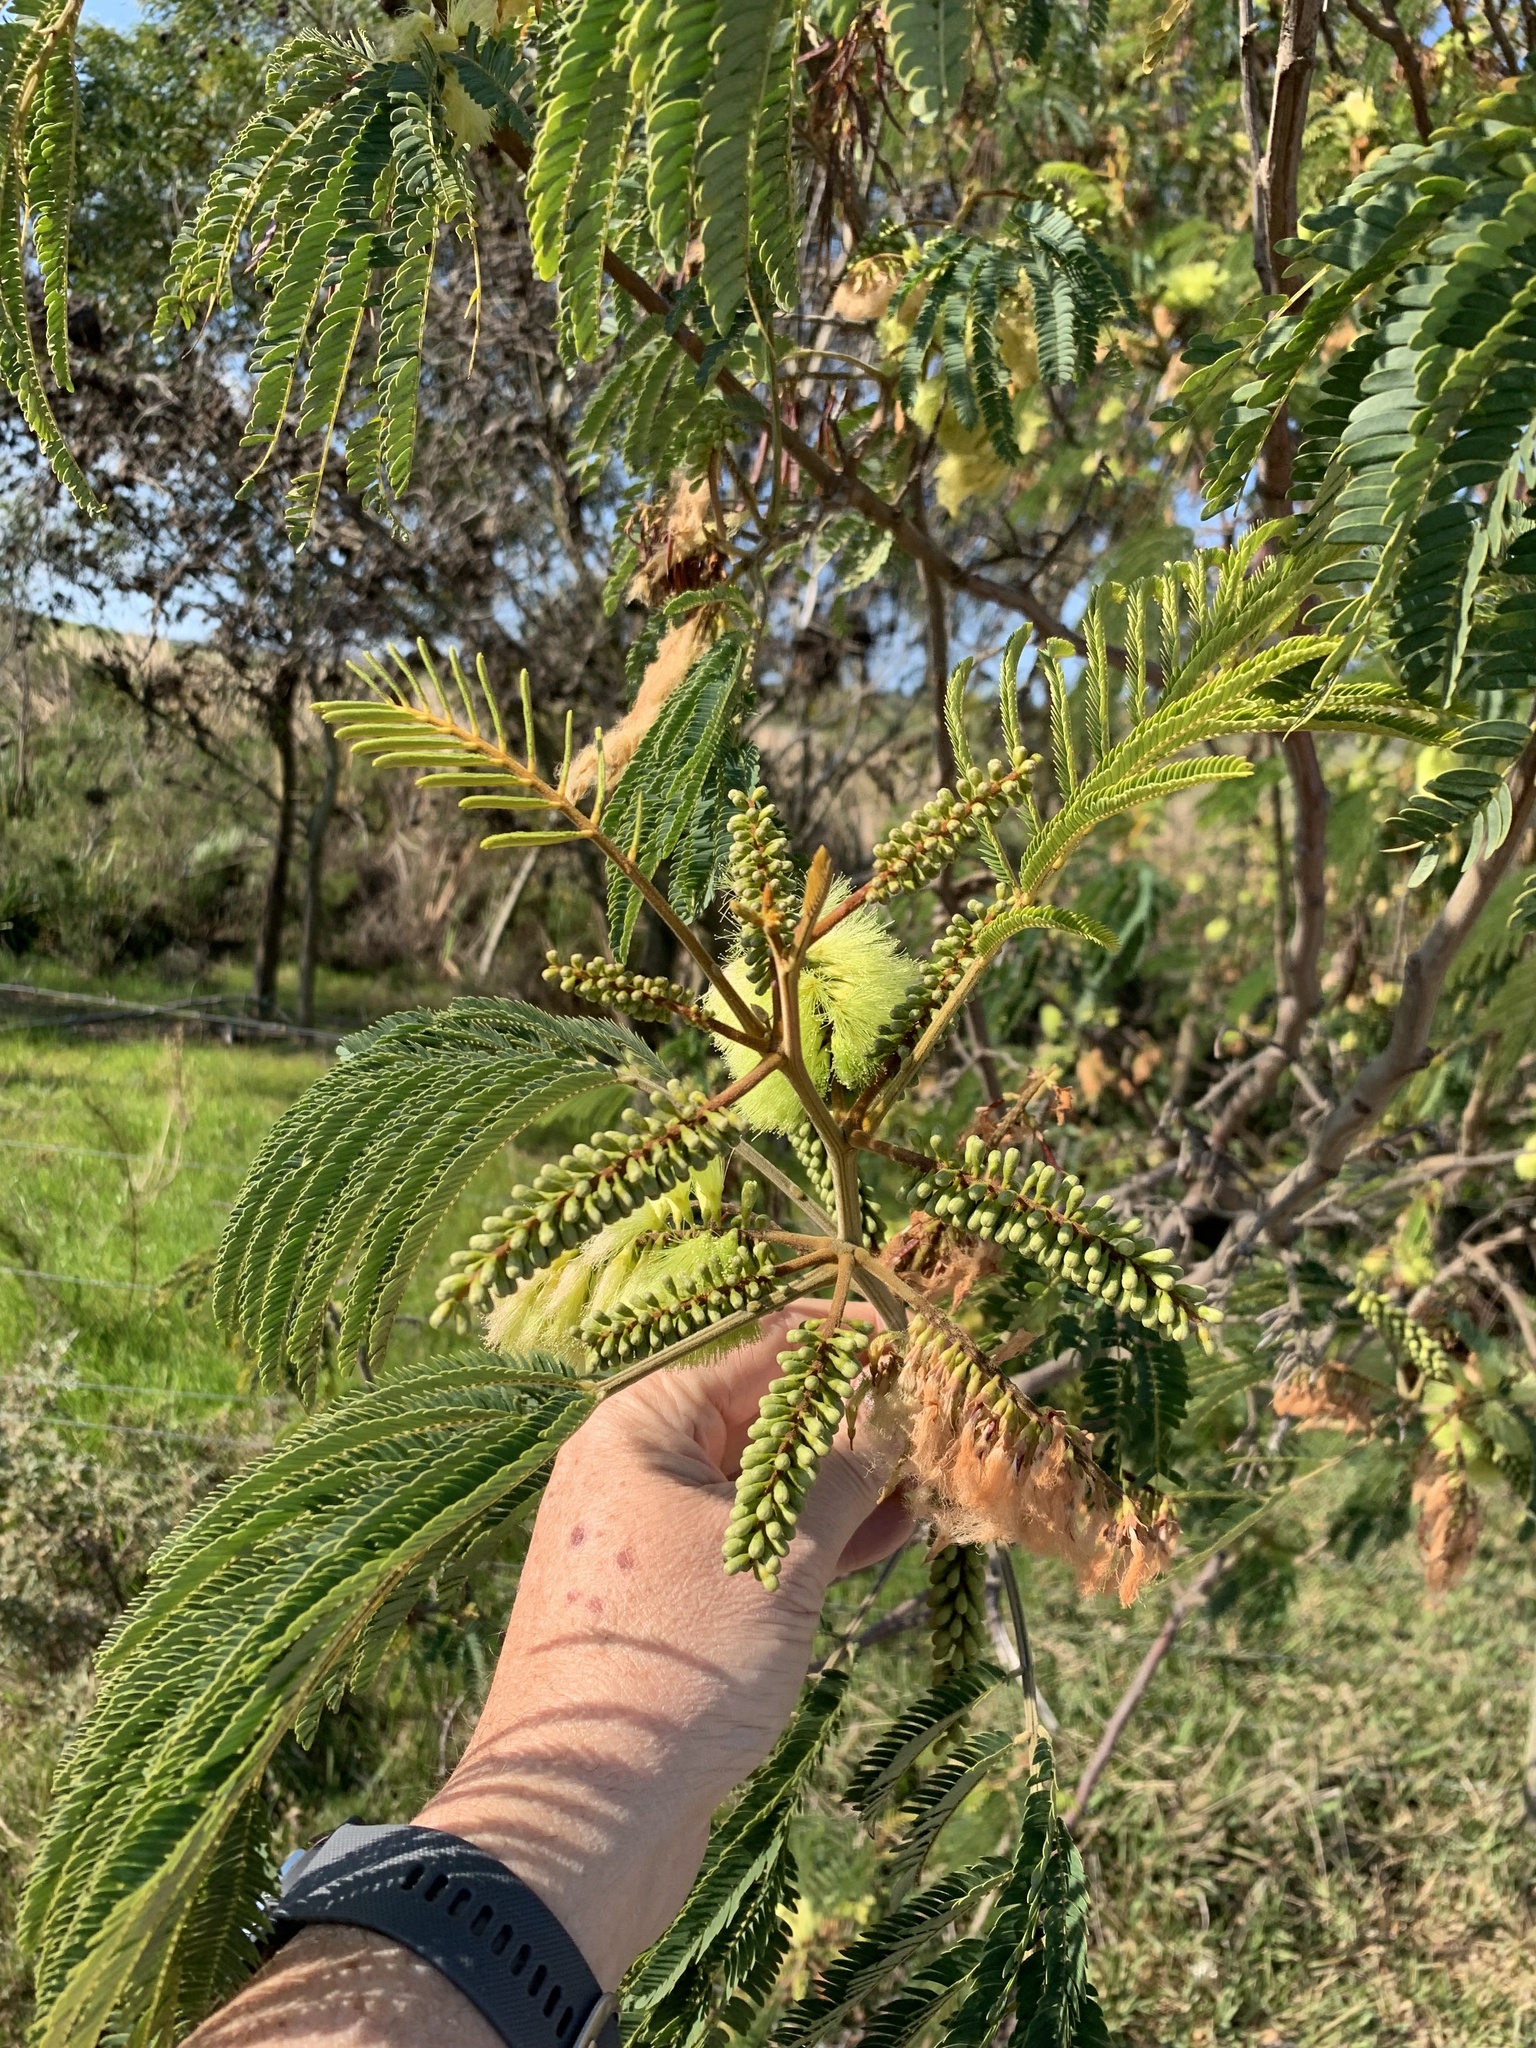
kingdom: Plantae
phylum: Tracheophyta
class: Magnoliopsida
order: Fabales
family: Fabaceae
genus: Paraserianthes
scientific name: Paraserianthes lophantha
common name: Plume albizia
